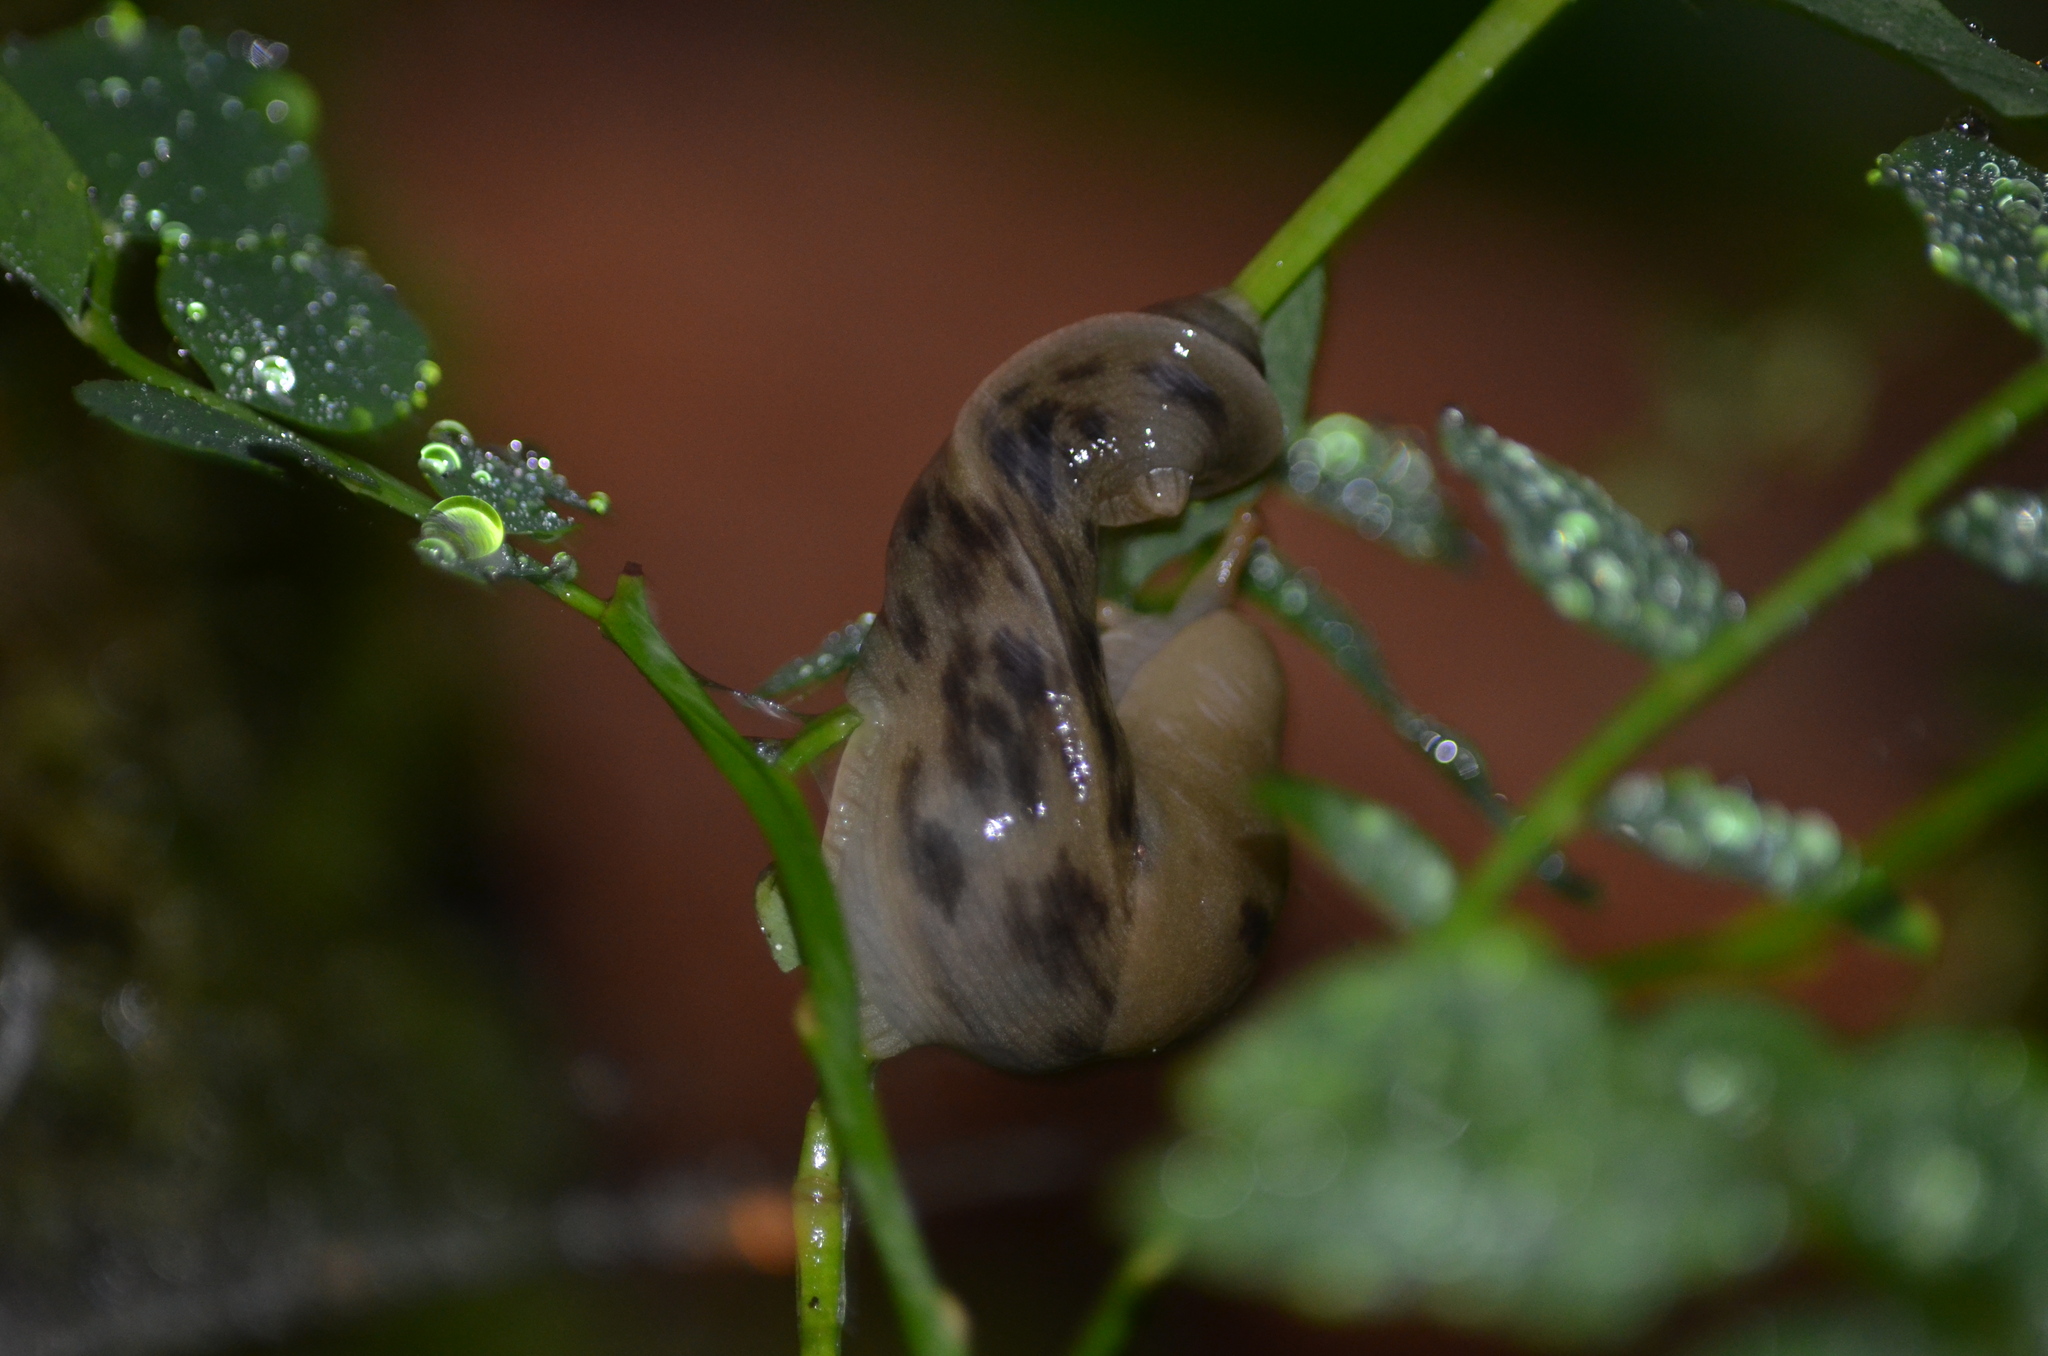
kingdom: Animalia
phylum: Mollusca
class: Gastropoda
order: Stylommatophora
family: Ariolimacidae
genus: Ariolimax
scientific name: Ariolimax columbianus
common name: Pacific banana slug
